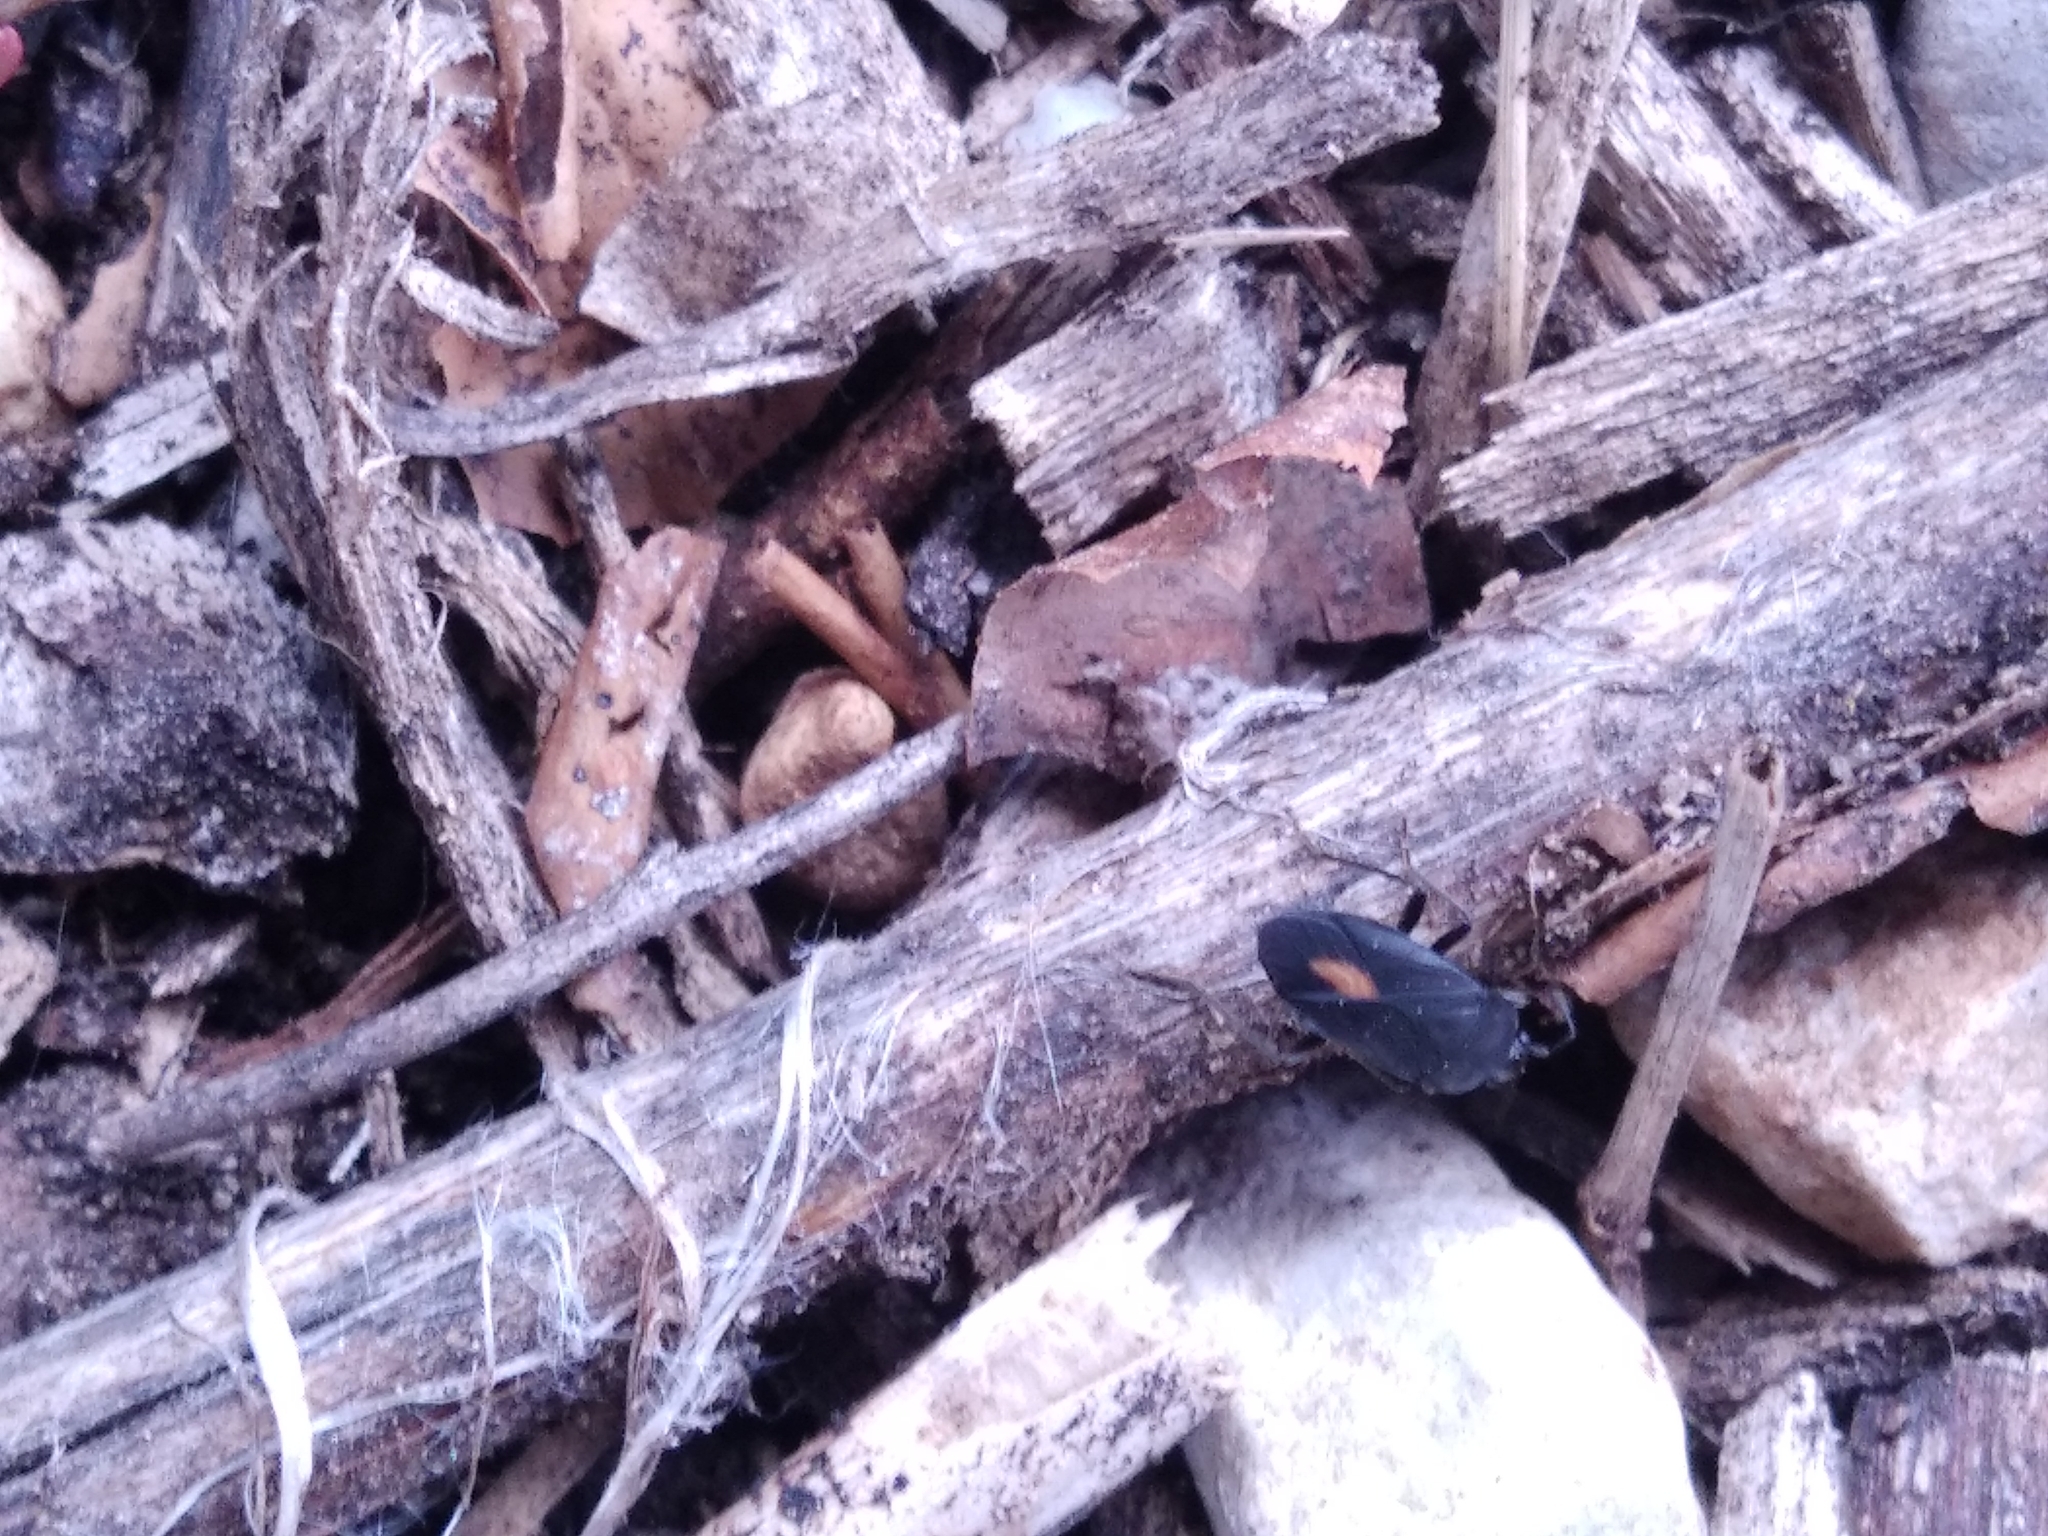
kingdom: Animalia
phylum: Arthropoda
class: Insecta
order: Hemiptera
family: Rhyparochromidae
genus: Aphanus
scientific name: Aphanus rolandri
